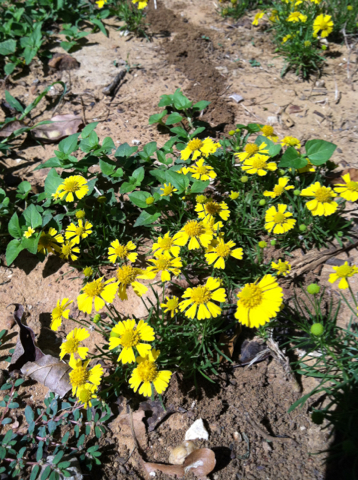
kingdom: Plantae
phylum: Tracheophyta
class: Magnoliopsida
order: Asterales
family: Asteraceae
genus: Helenium
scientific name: Helenium amarum
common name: Bitter sneezeweed
